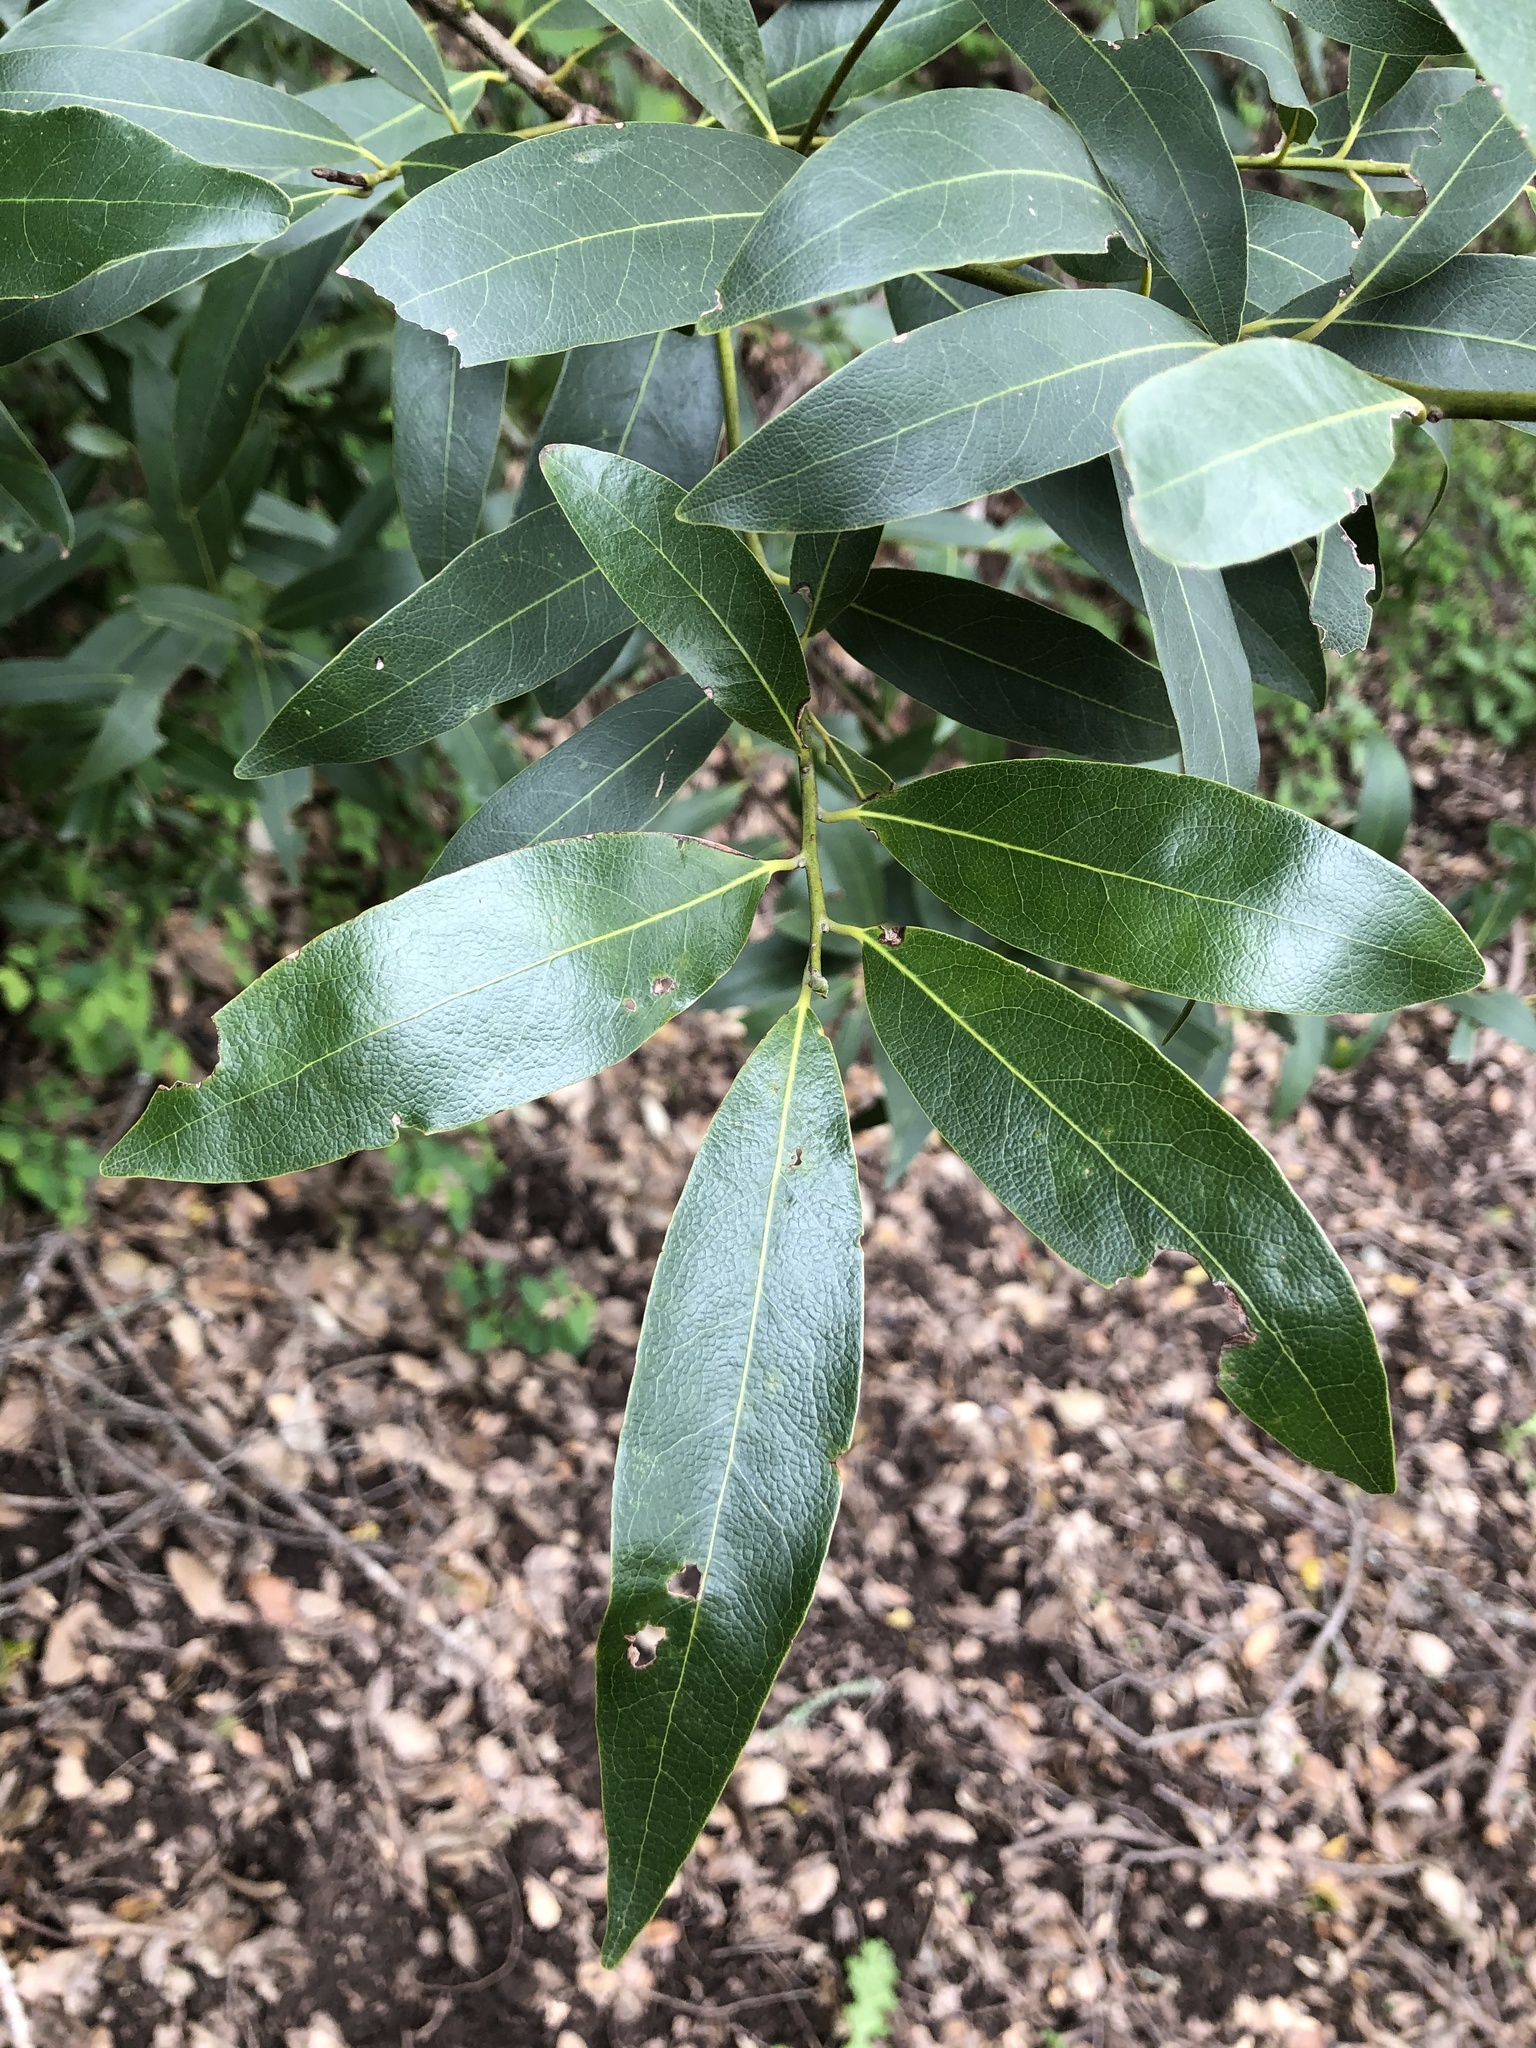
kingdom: Plantae
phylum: Tracheophyta
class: Magnoliopsida
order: Laurales
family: Lauraceae
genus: Umbellularia
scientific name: Umbellularia californica
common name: California bay
